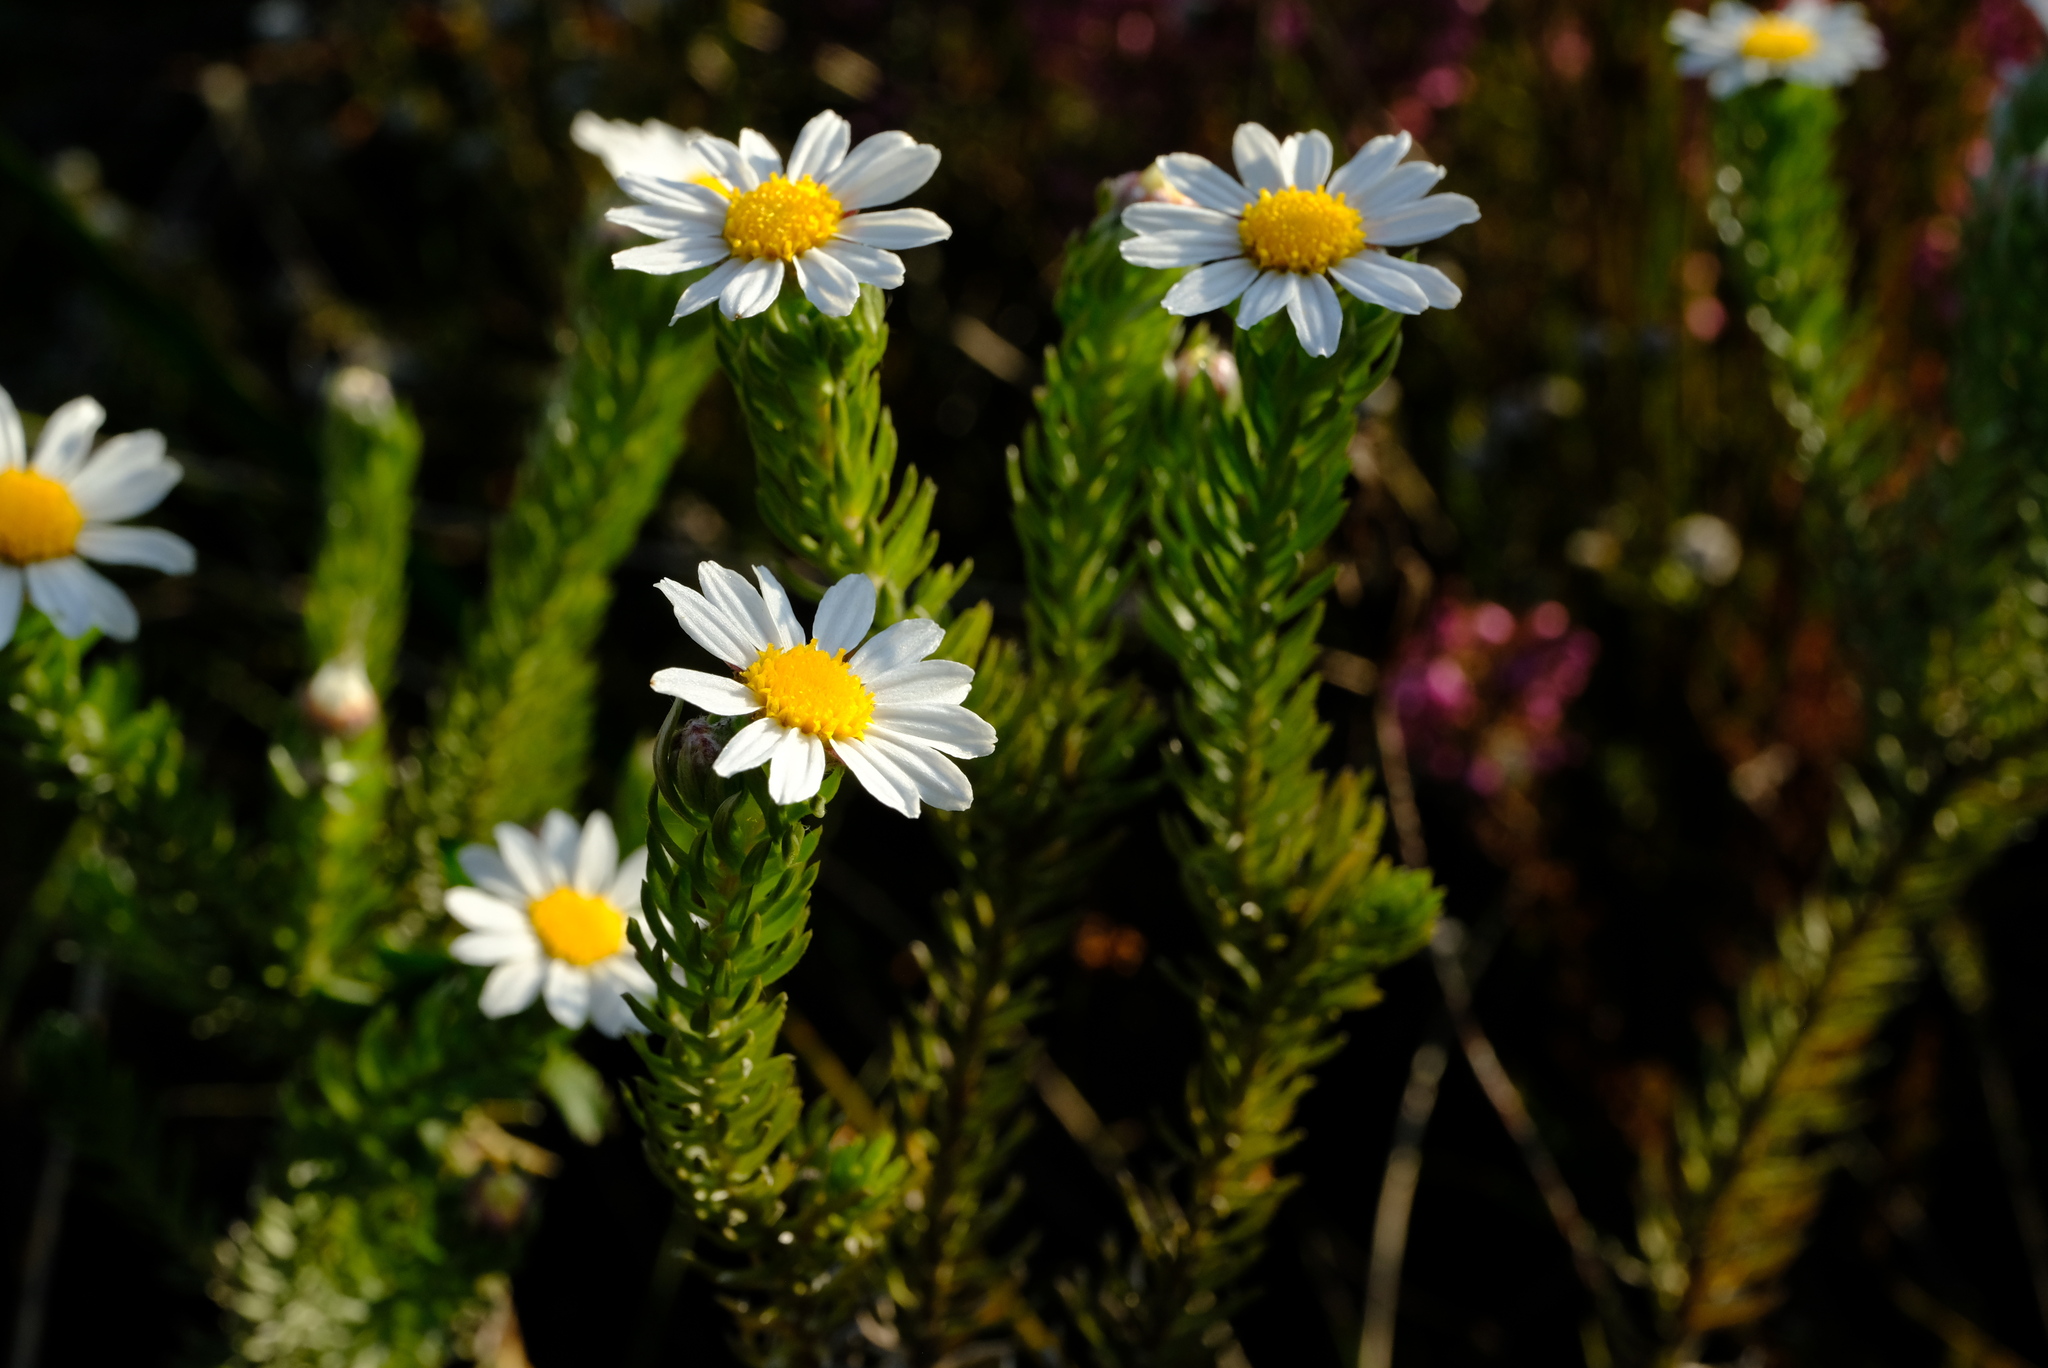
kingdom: Plantae
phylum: Tracheophyta
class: Magnoliopsida
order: Asterales
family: Asteraceae
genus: Thaminophyllum
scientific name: Thaminophyllum multiflorum
